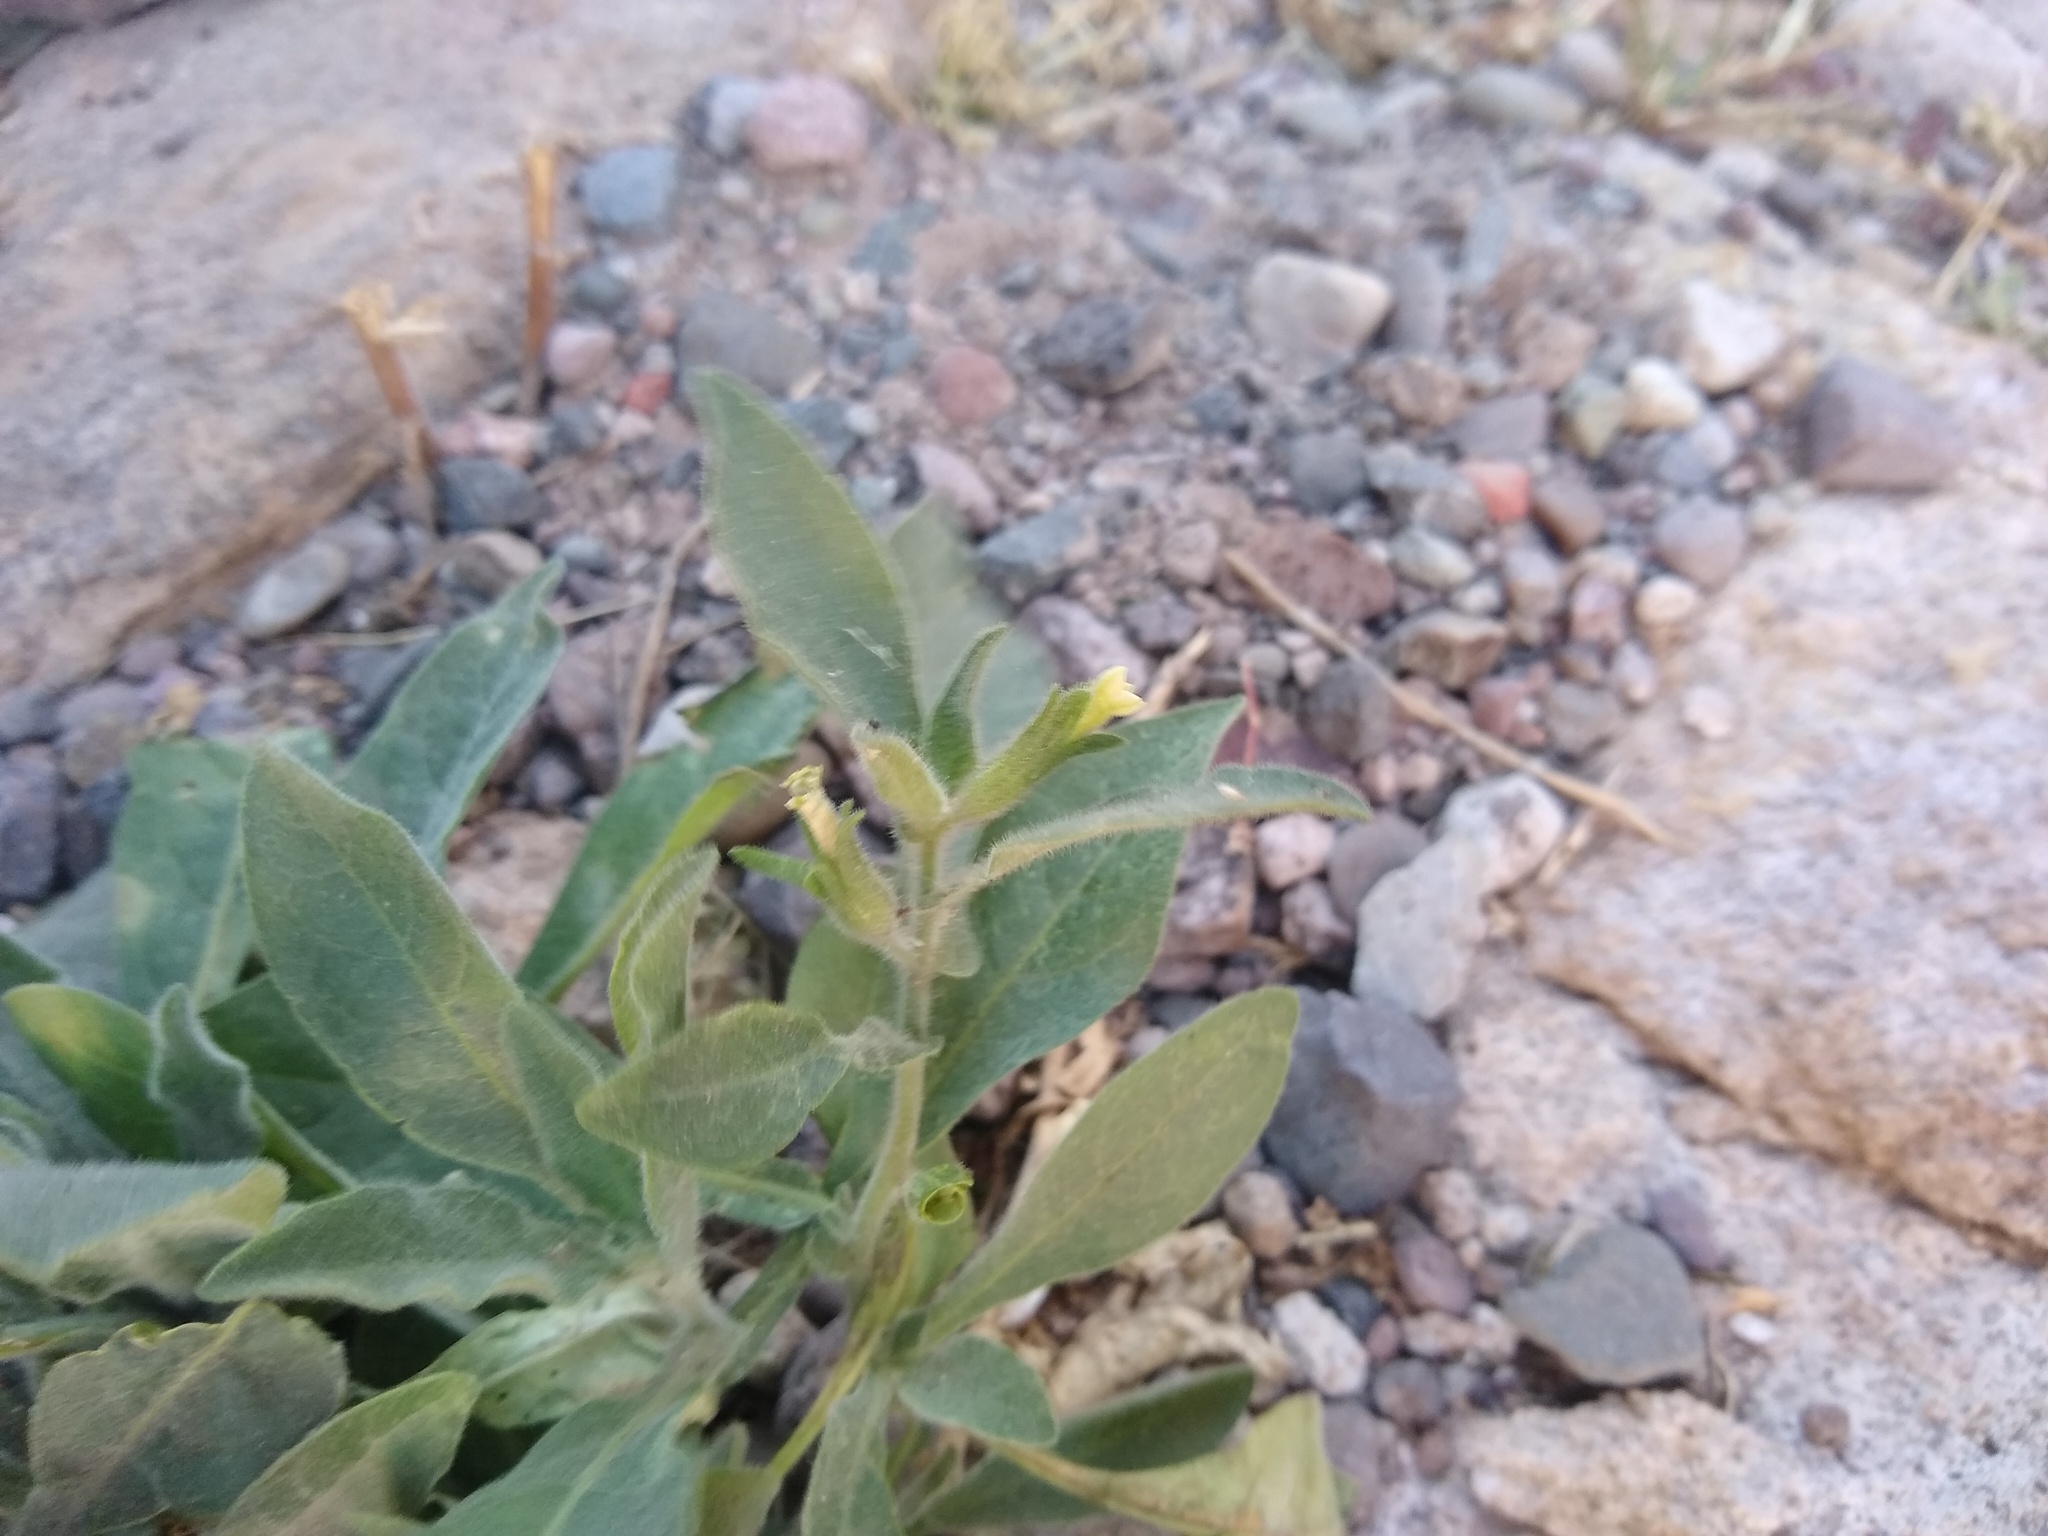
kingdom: Plantae
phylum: Tracheophyta
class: Magnoliopsida
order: Solanales
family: Solanaceae
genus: Nicotiana
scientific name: Nicotiana obtusifolia
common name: Desert tobacco
